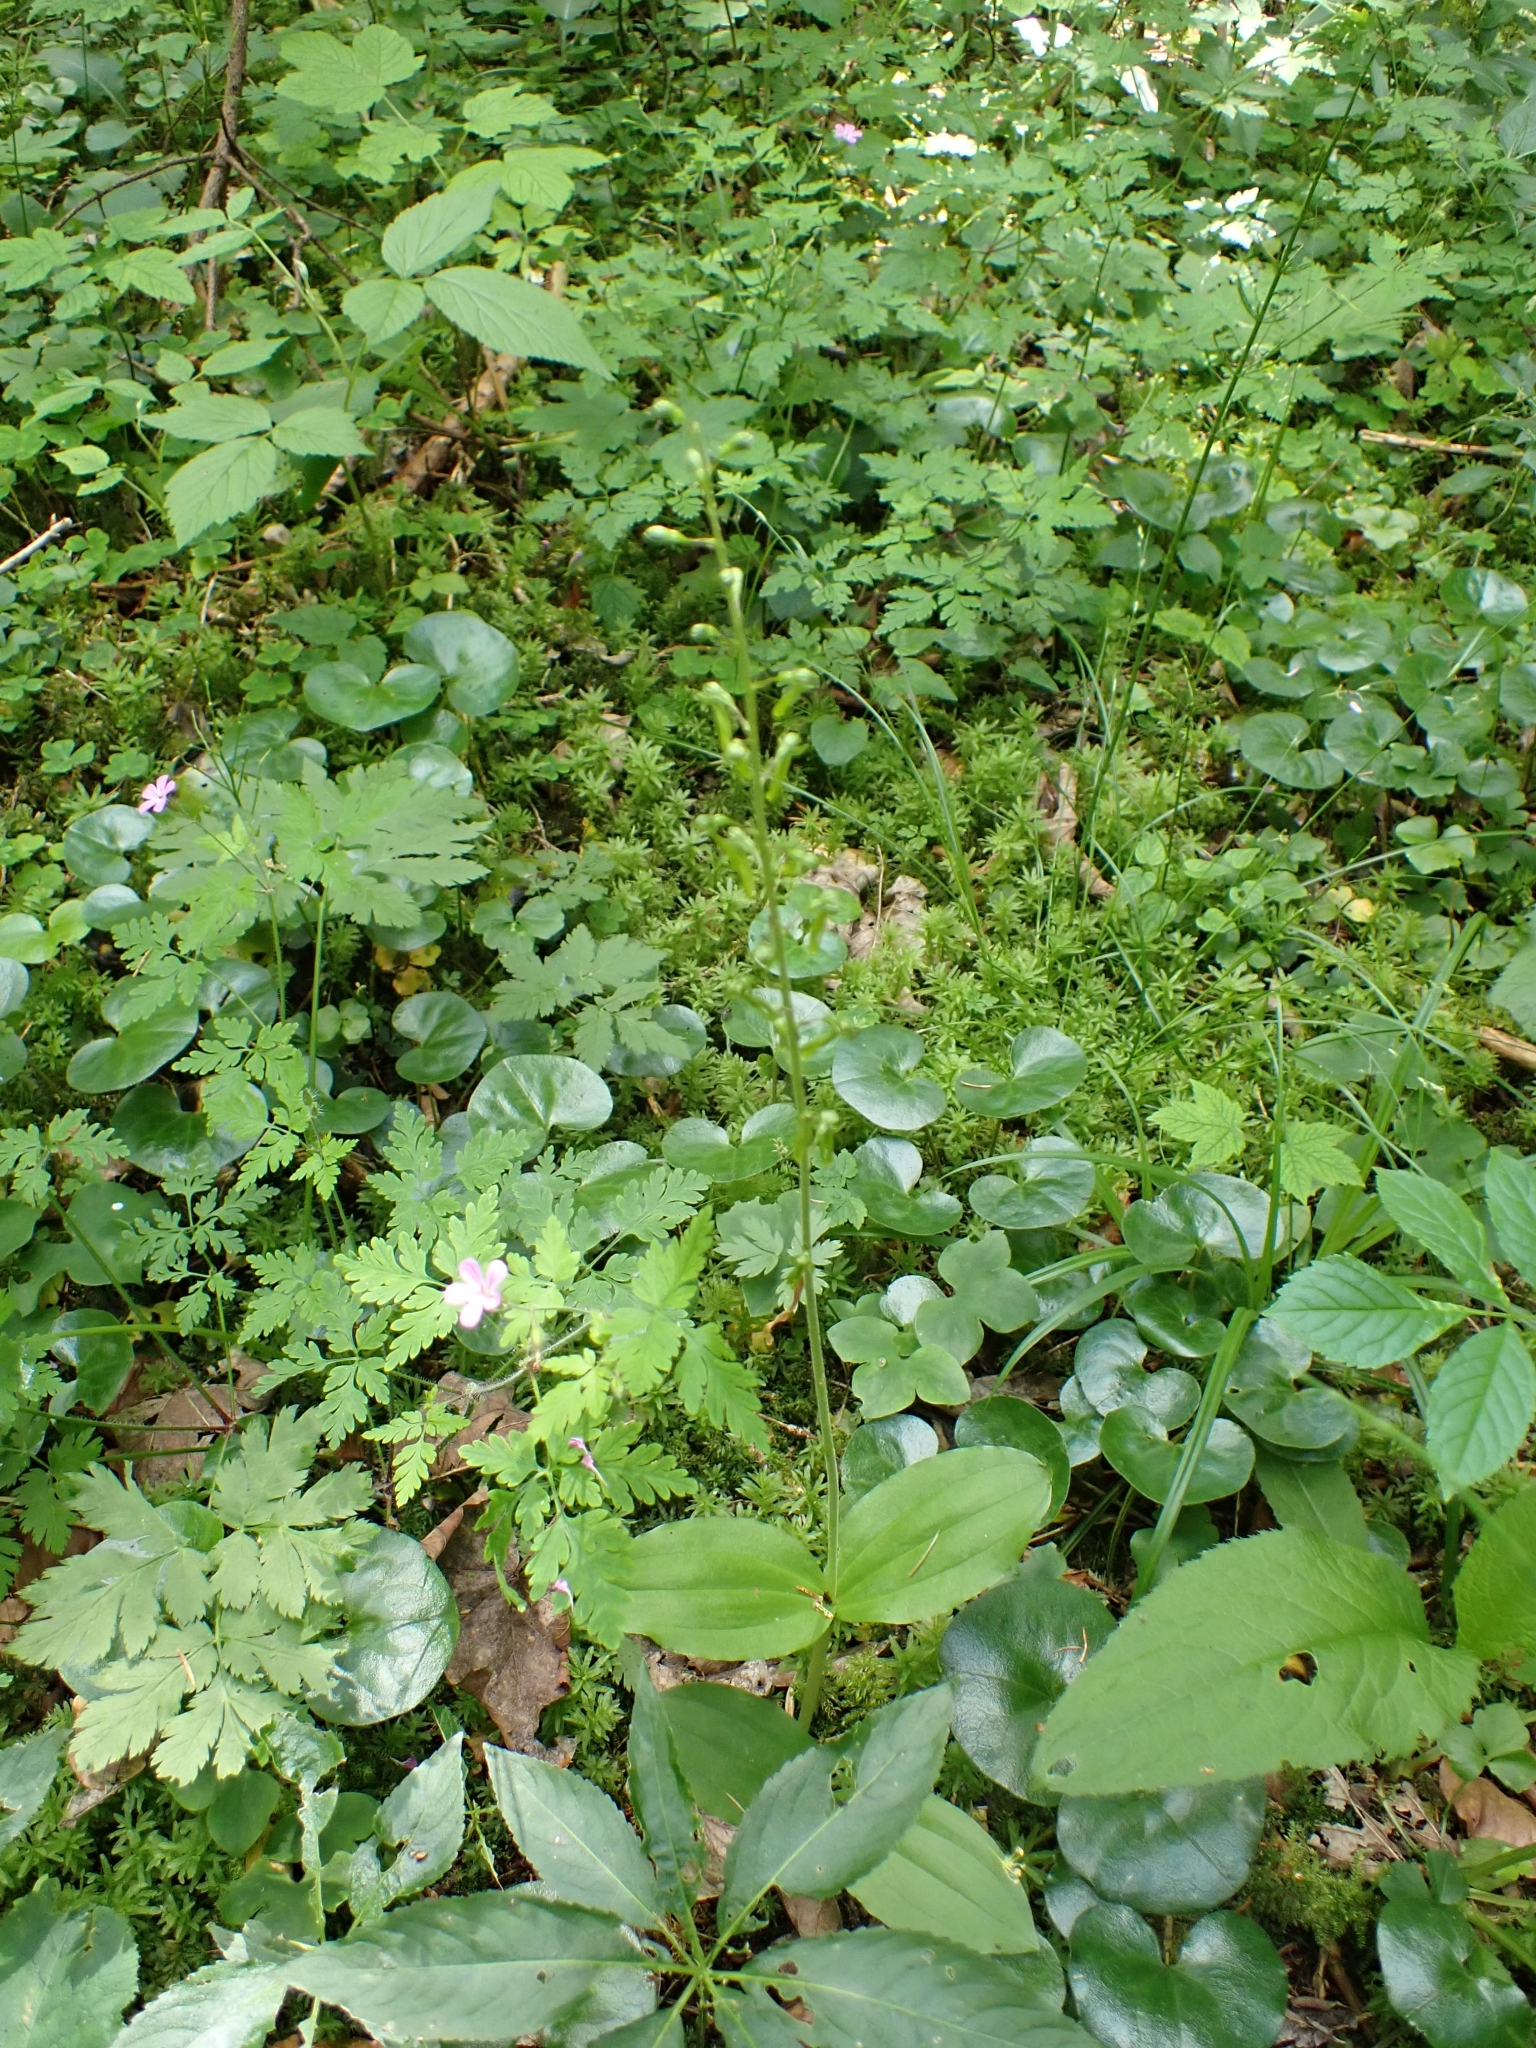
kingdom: Plantae
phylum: Tracheophyta
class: Liliopsida
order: Asparagales
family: Orchidaceae
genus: Neottia
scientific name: Neottia ovata
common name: Common twayblade
